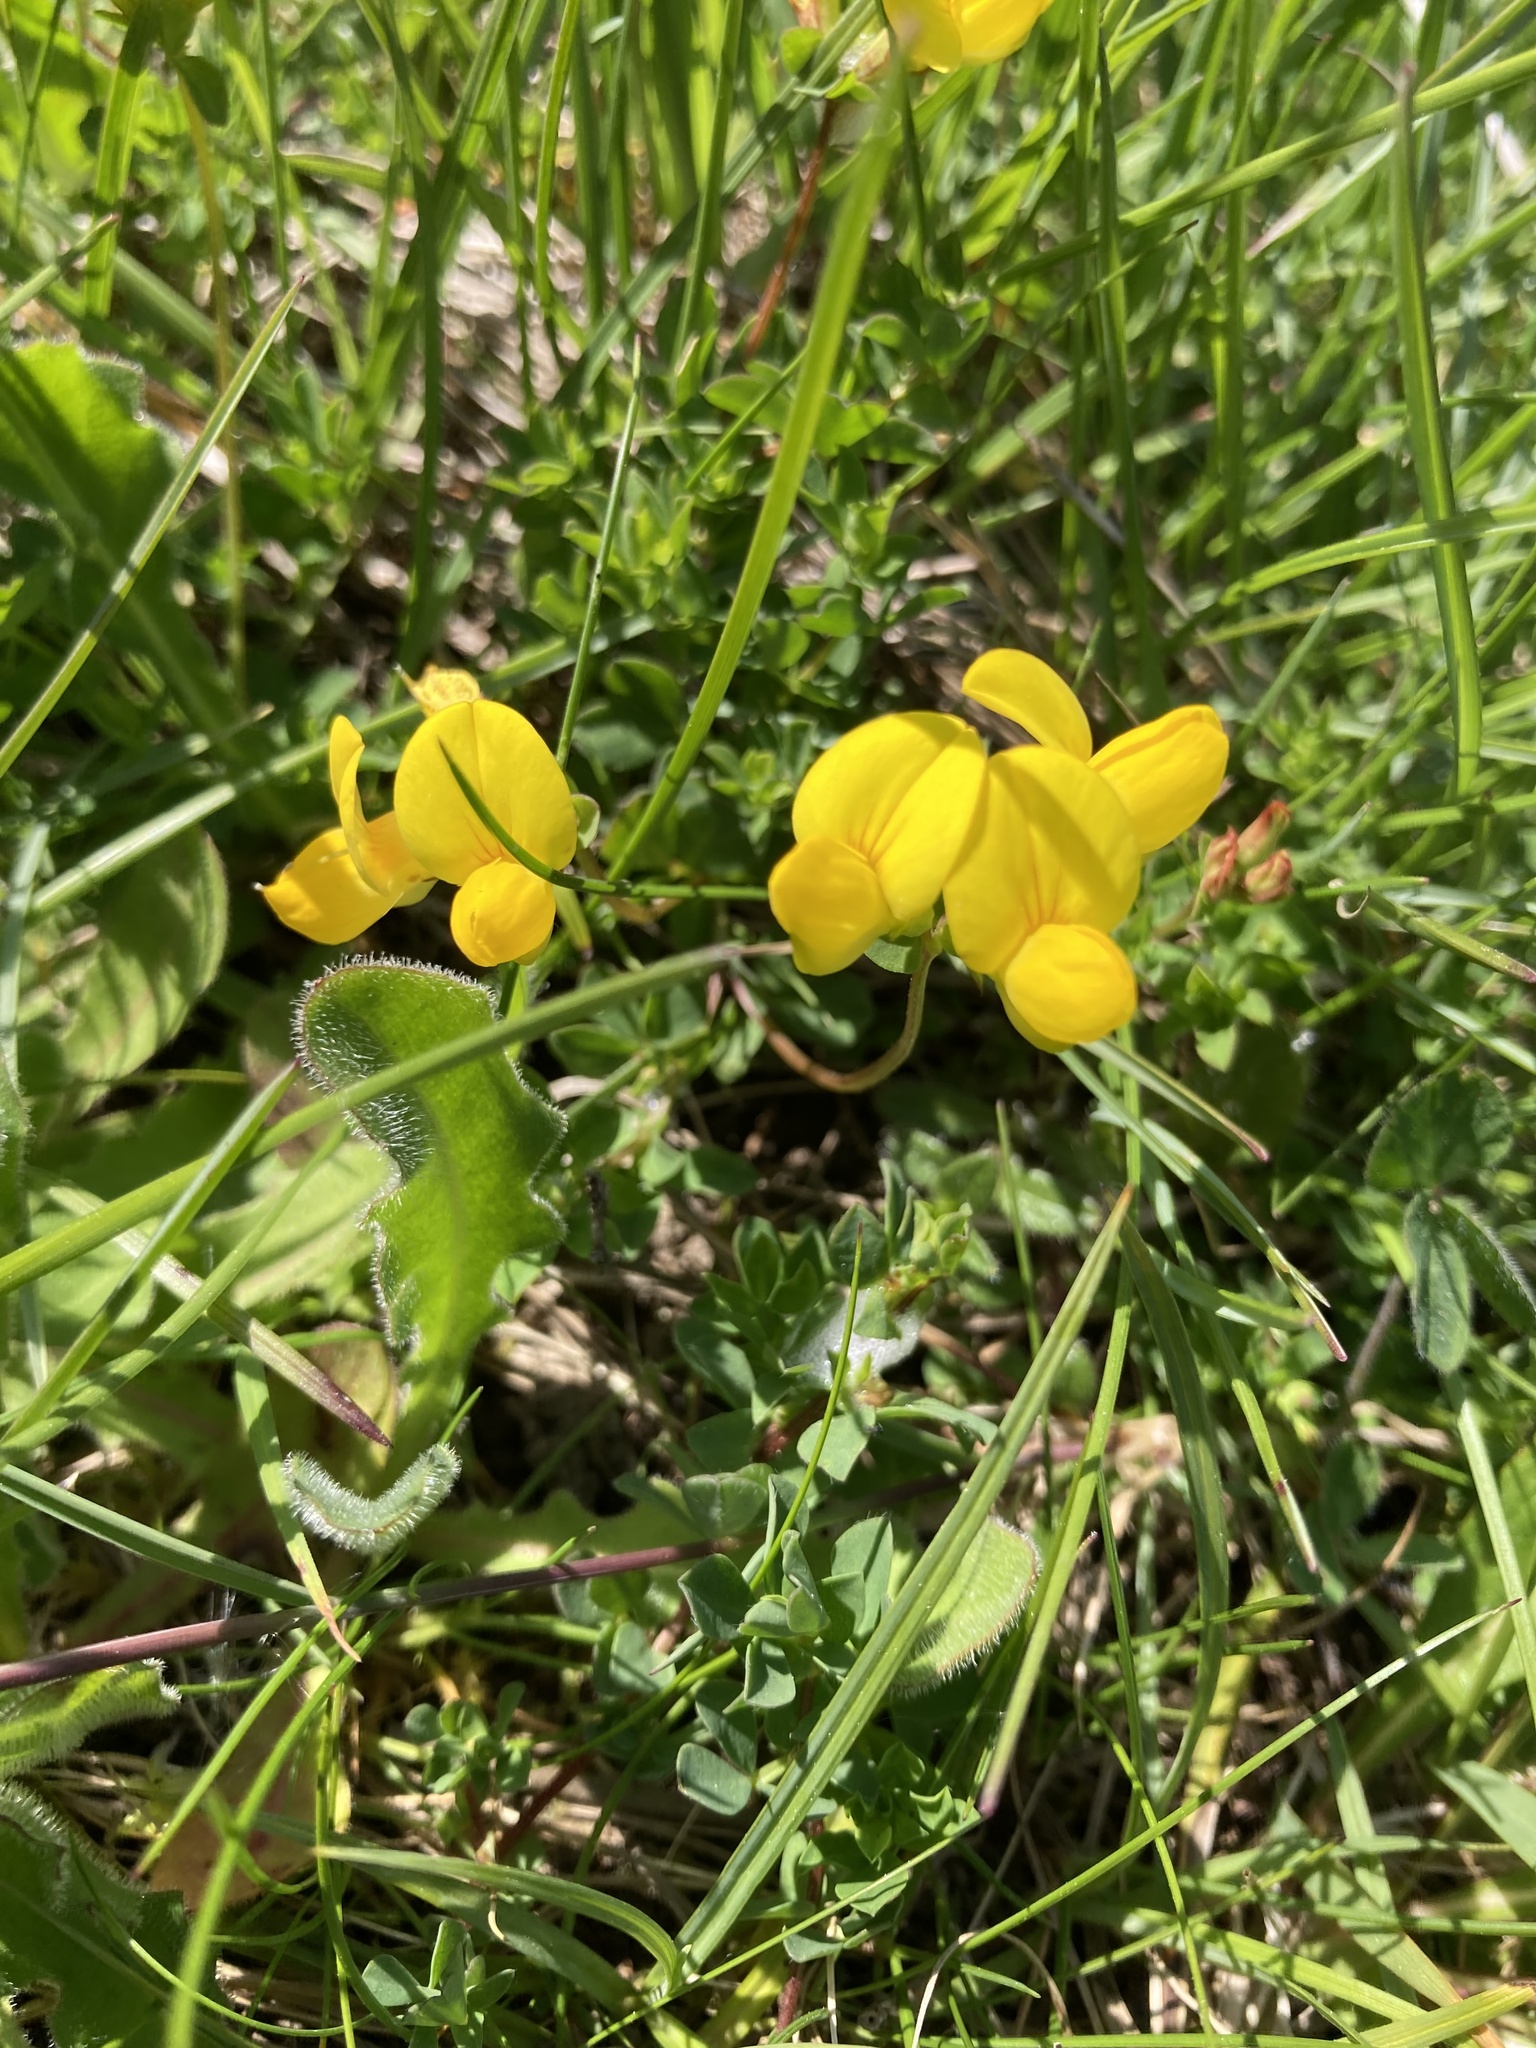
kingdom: Plantae
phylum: Tracheophyta
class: Magnoliopsida
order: Fabales
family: Fabaceae
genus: Lotus
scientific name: Lotus corniculatus
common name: Common bird's-foot-trefoil
